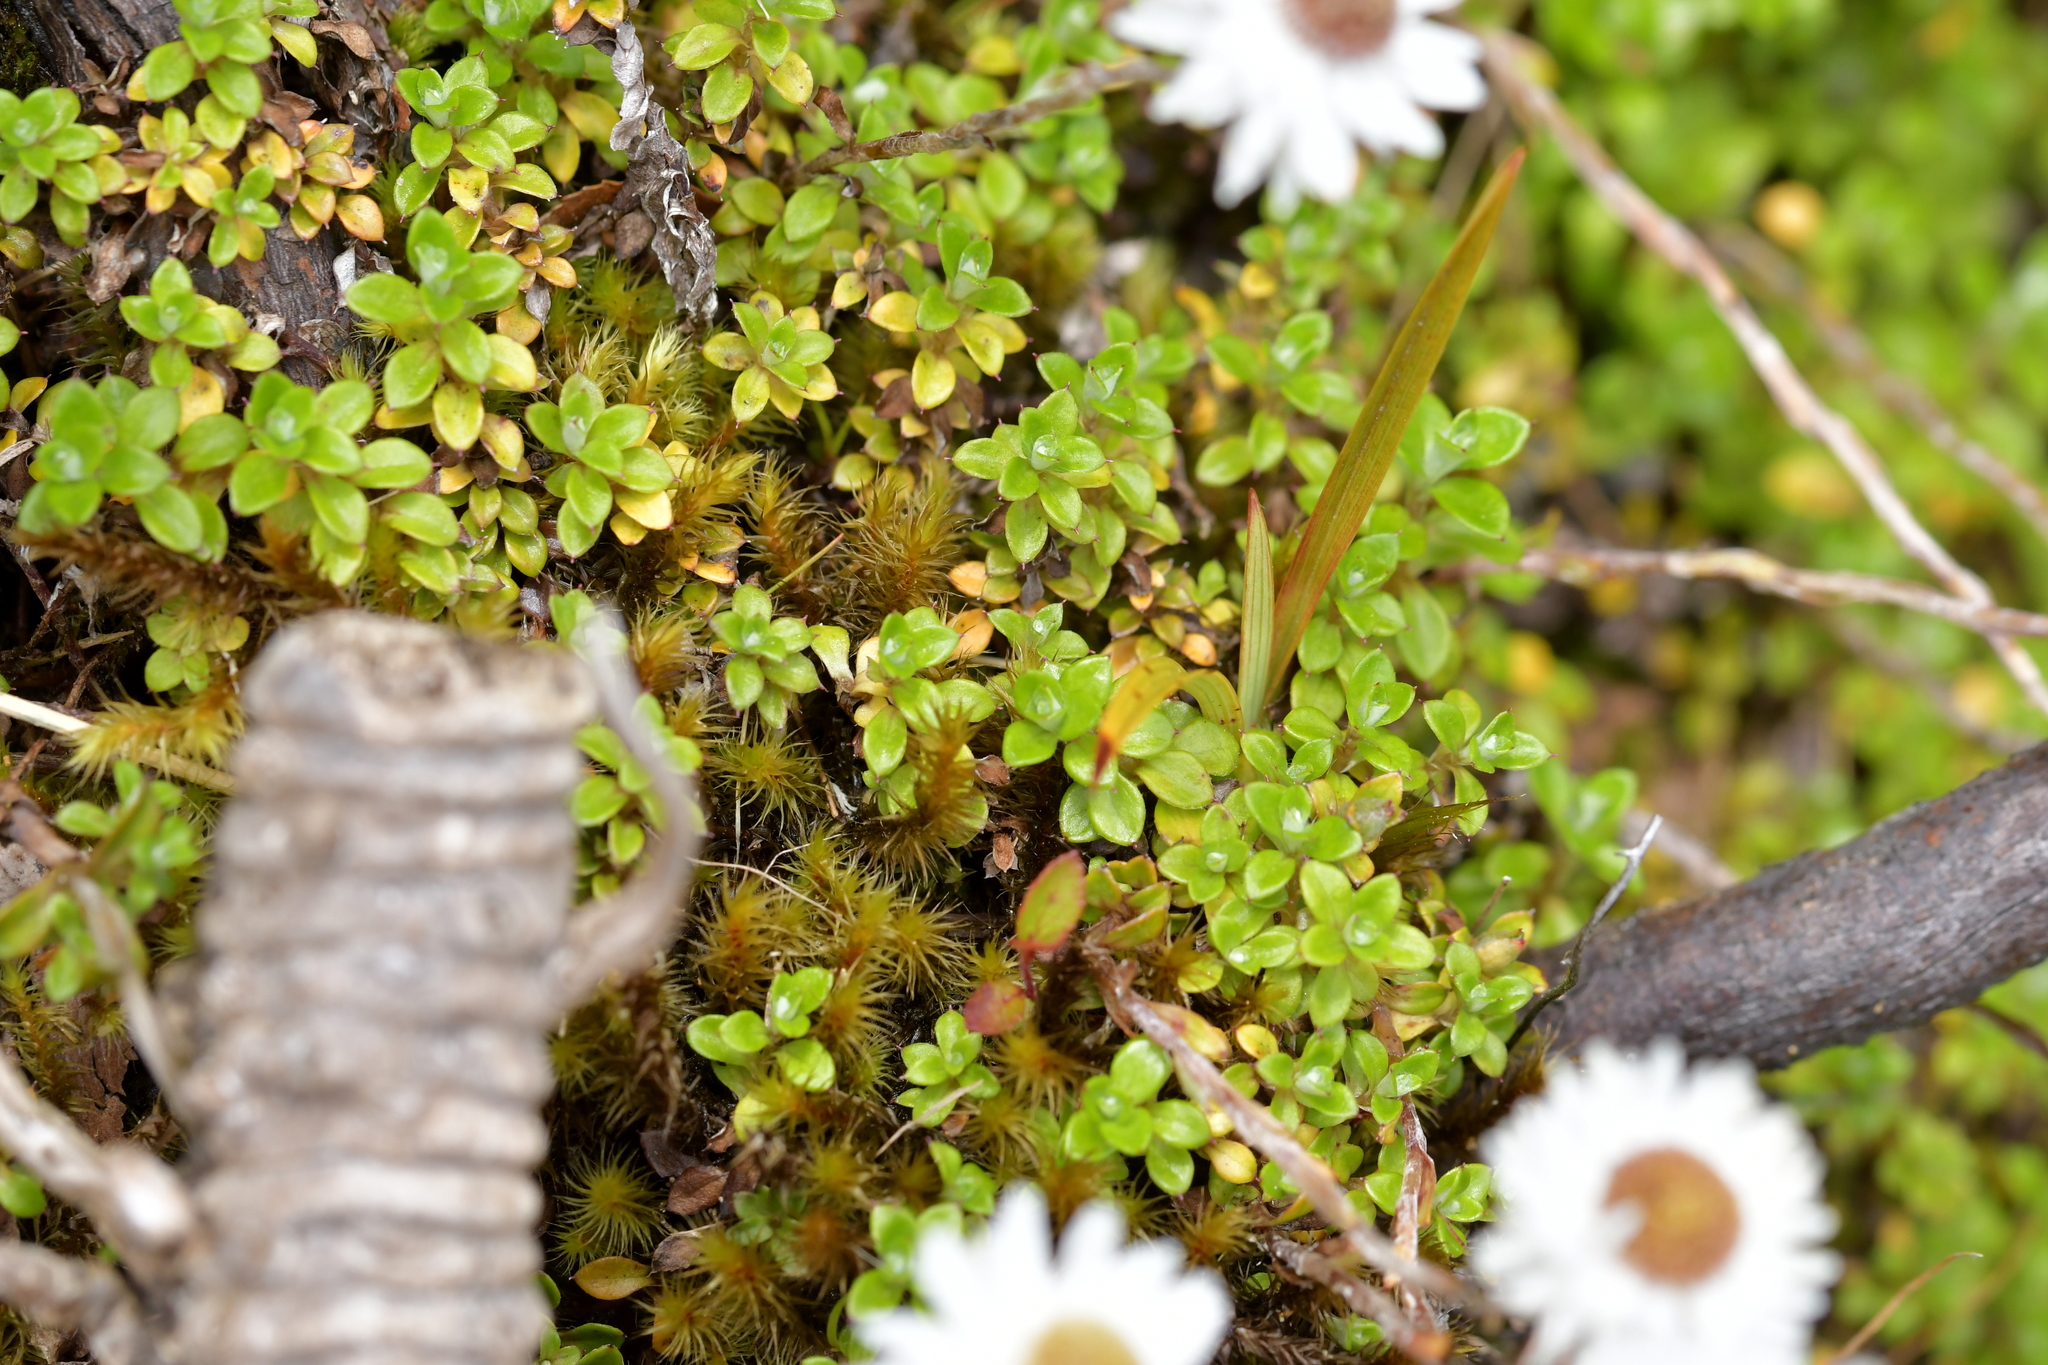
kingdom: Plantae
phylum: Tracheophyta
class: Magnoliopsida
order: Asterales
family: Asteraceae
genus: Anaphalioides
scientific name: Anaphalioides bellidioides
